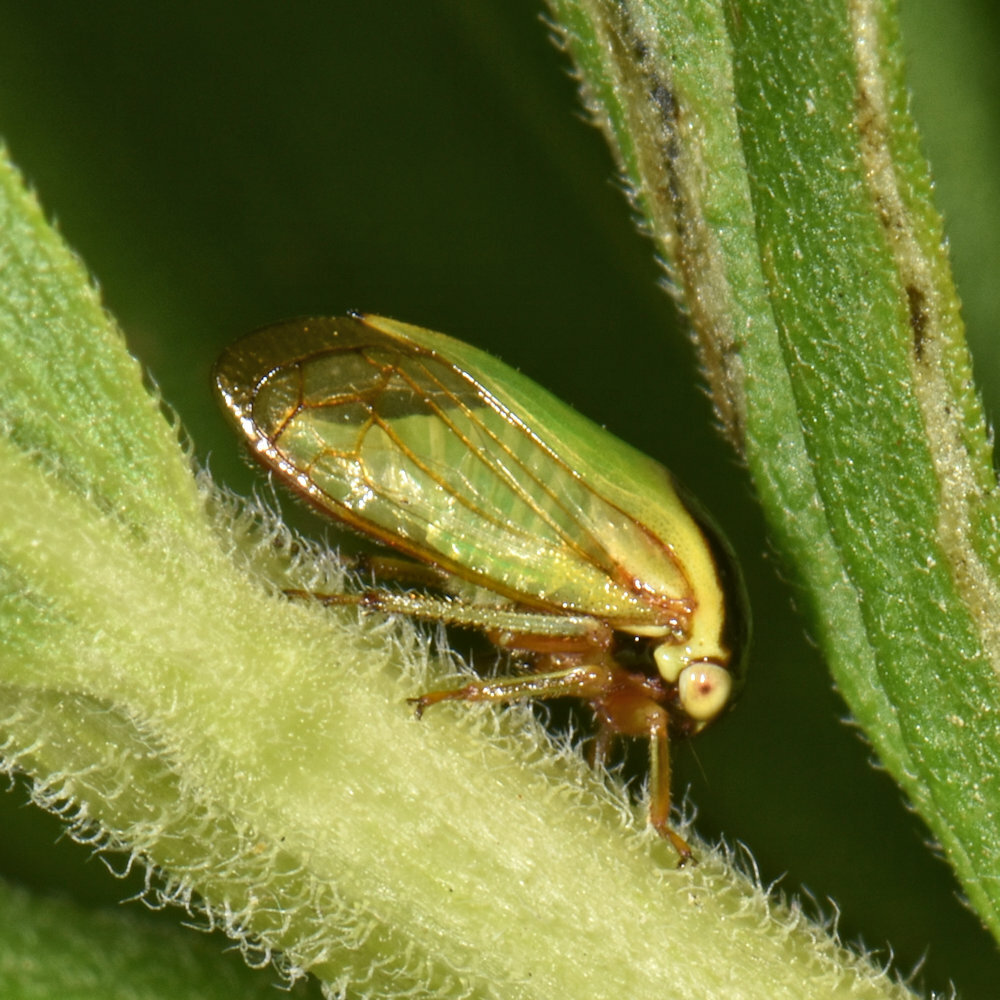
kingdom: Animalia
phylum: Arthropoda
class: Insecta
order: Hemiptera
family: Membracidae
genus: Acutalis
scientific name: Acutalis tartarea
